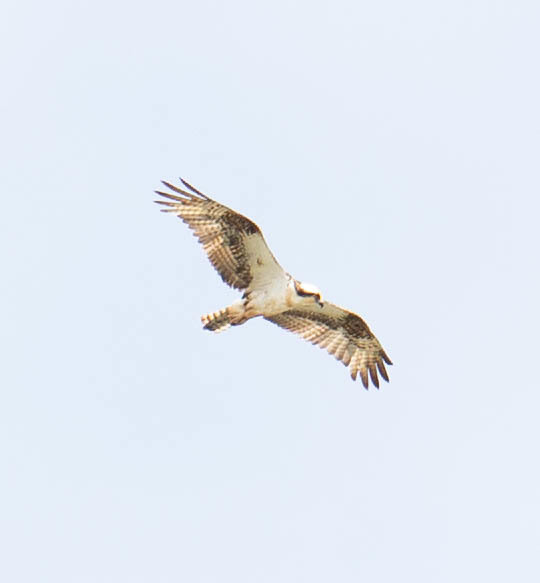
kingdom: Animalia
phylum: Chordata
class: Aves
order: Accipitriformes
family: Pandionidae
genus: Pandion
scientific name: Pandion haliaetus
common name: Osprey
